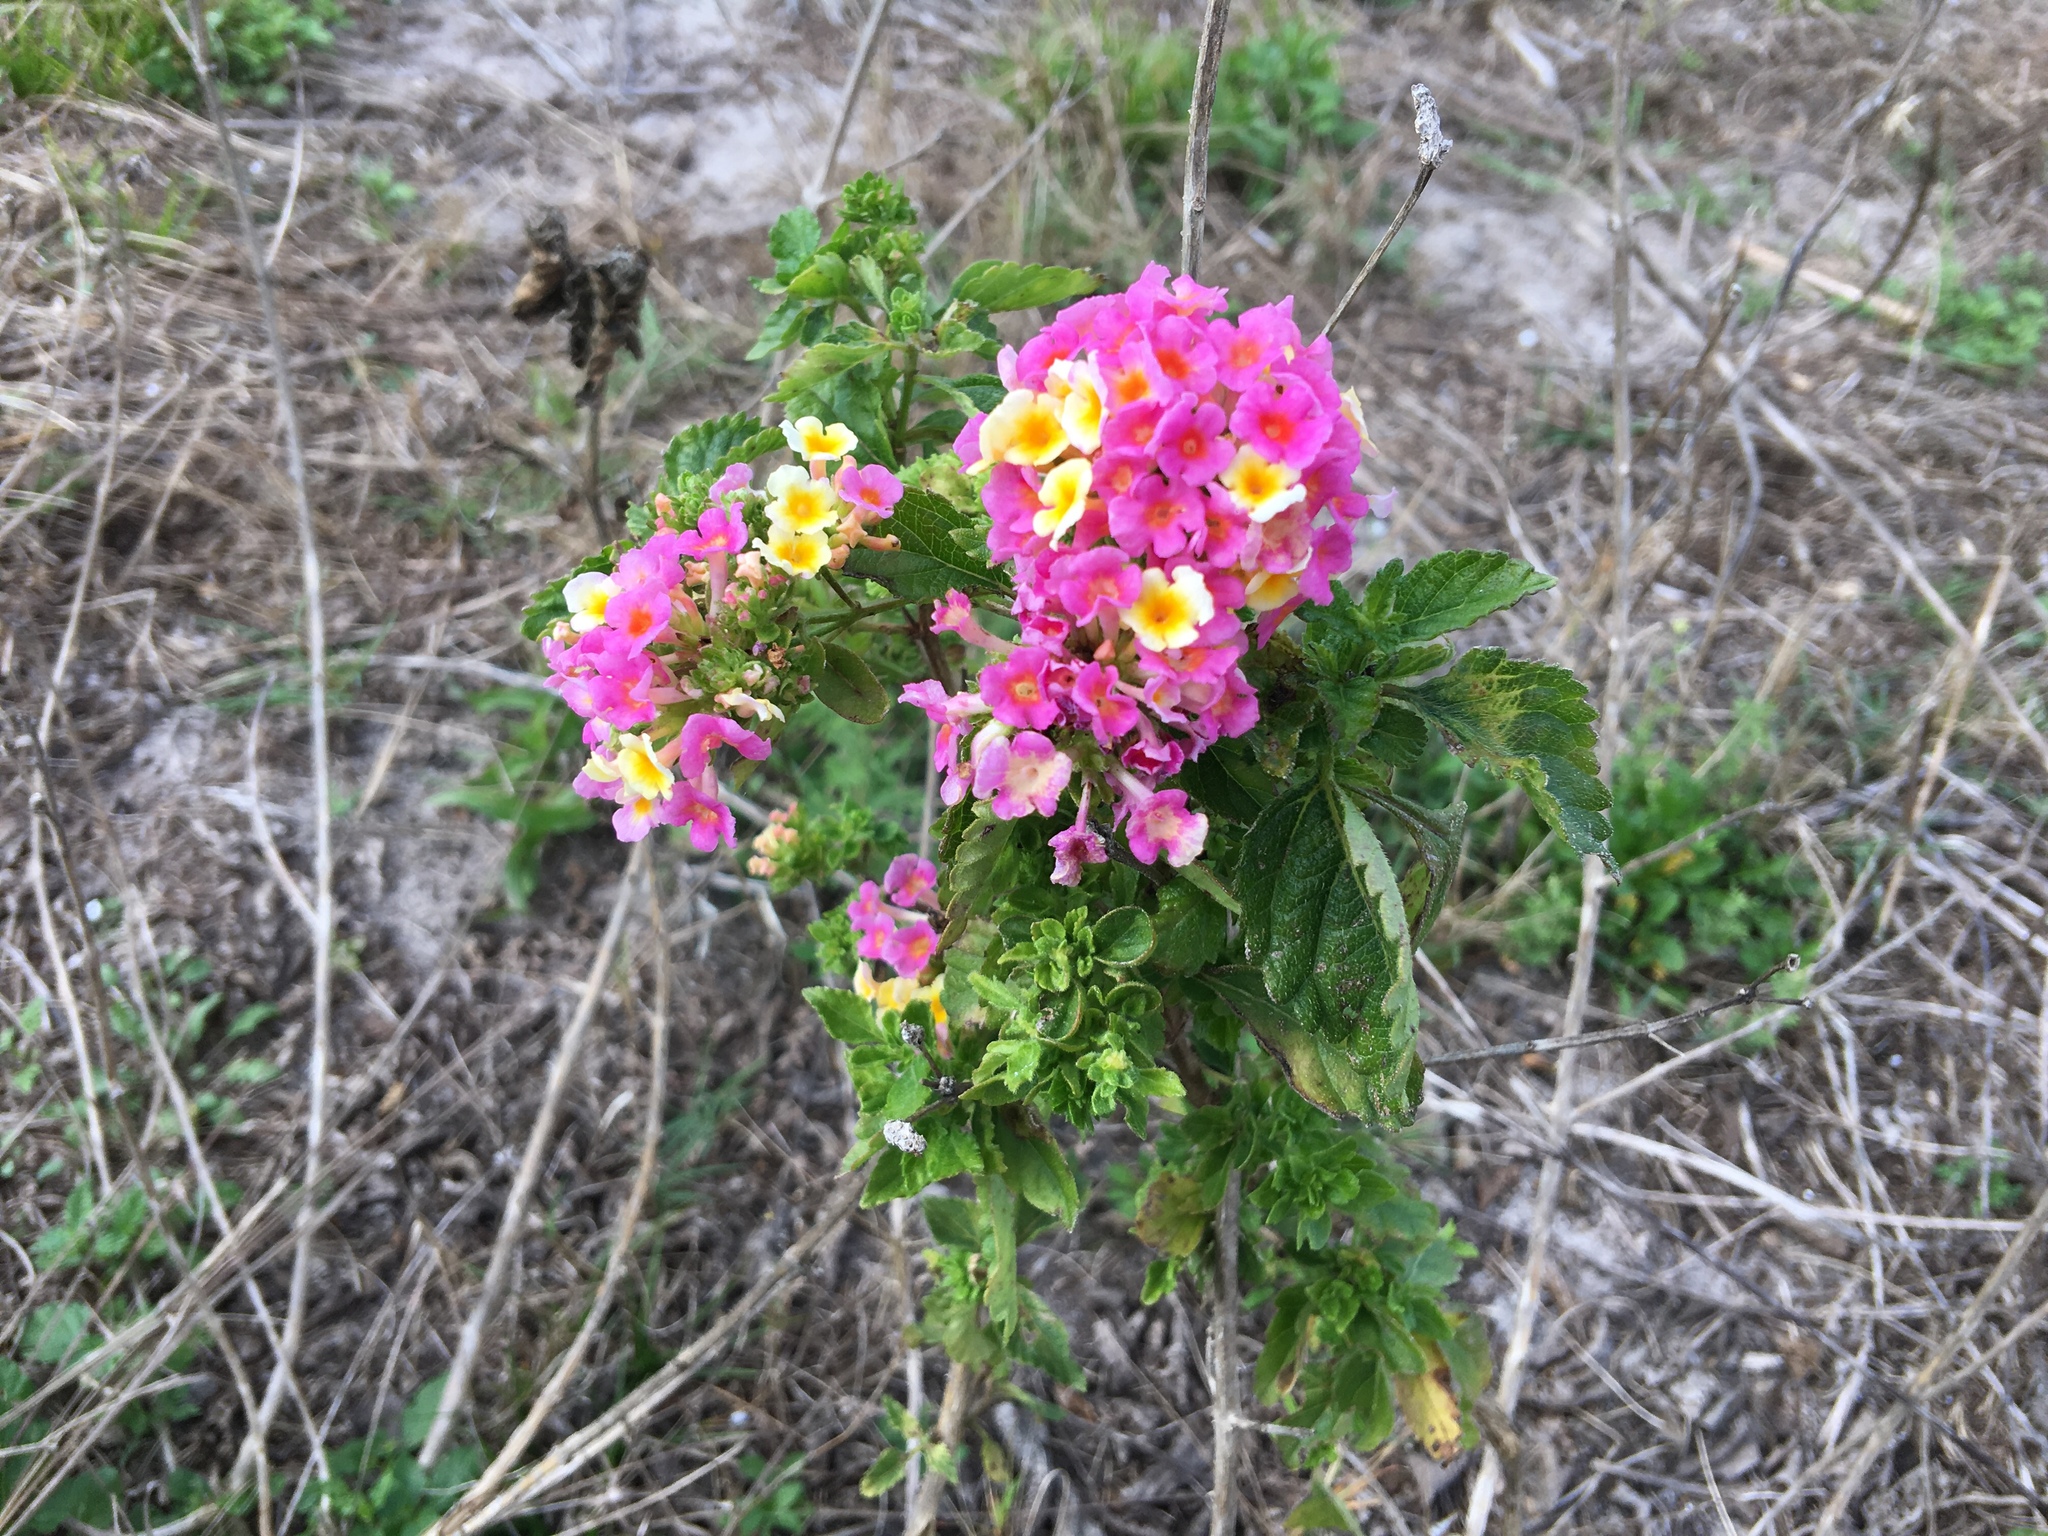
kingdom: Plantae
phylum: Tracheophyta
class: Magnoliopsida
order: Lamiales
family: Verbenaceae
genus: Lantana
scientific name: Lantana strigocamara
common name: Lantana
